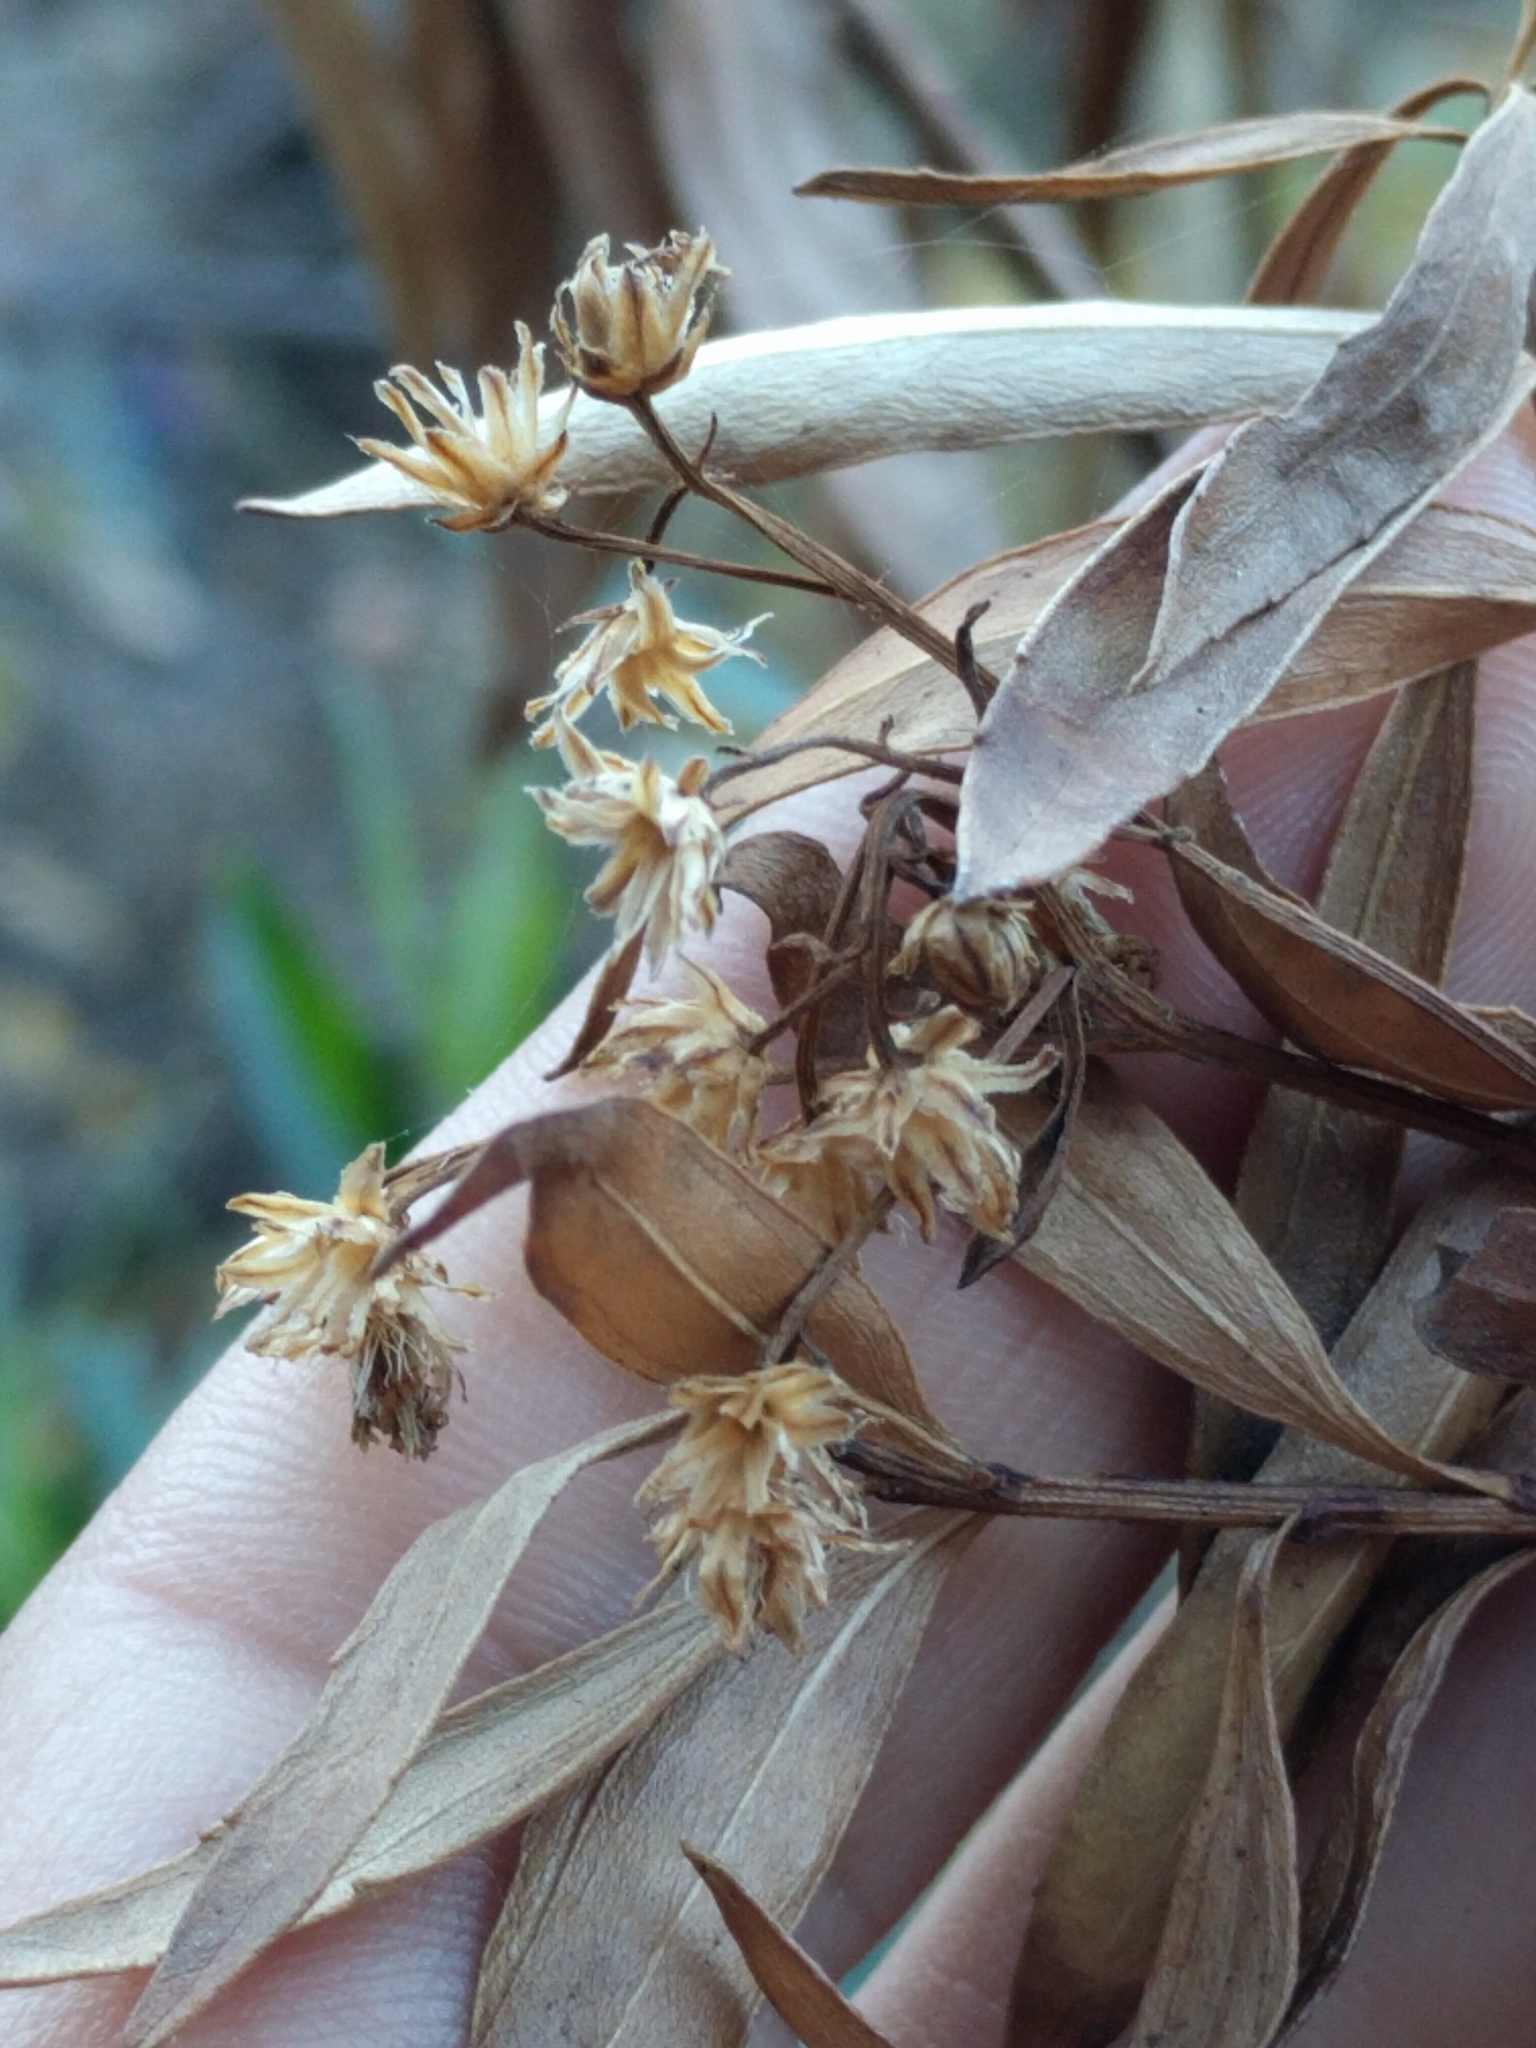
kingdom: Plantae
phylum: Tracheophyta
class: Magnoliopsida
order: Asterales
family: Asteraceae
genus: Baccharis
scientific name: Baccharis salicifolia
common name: Sticky baccharis
